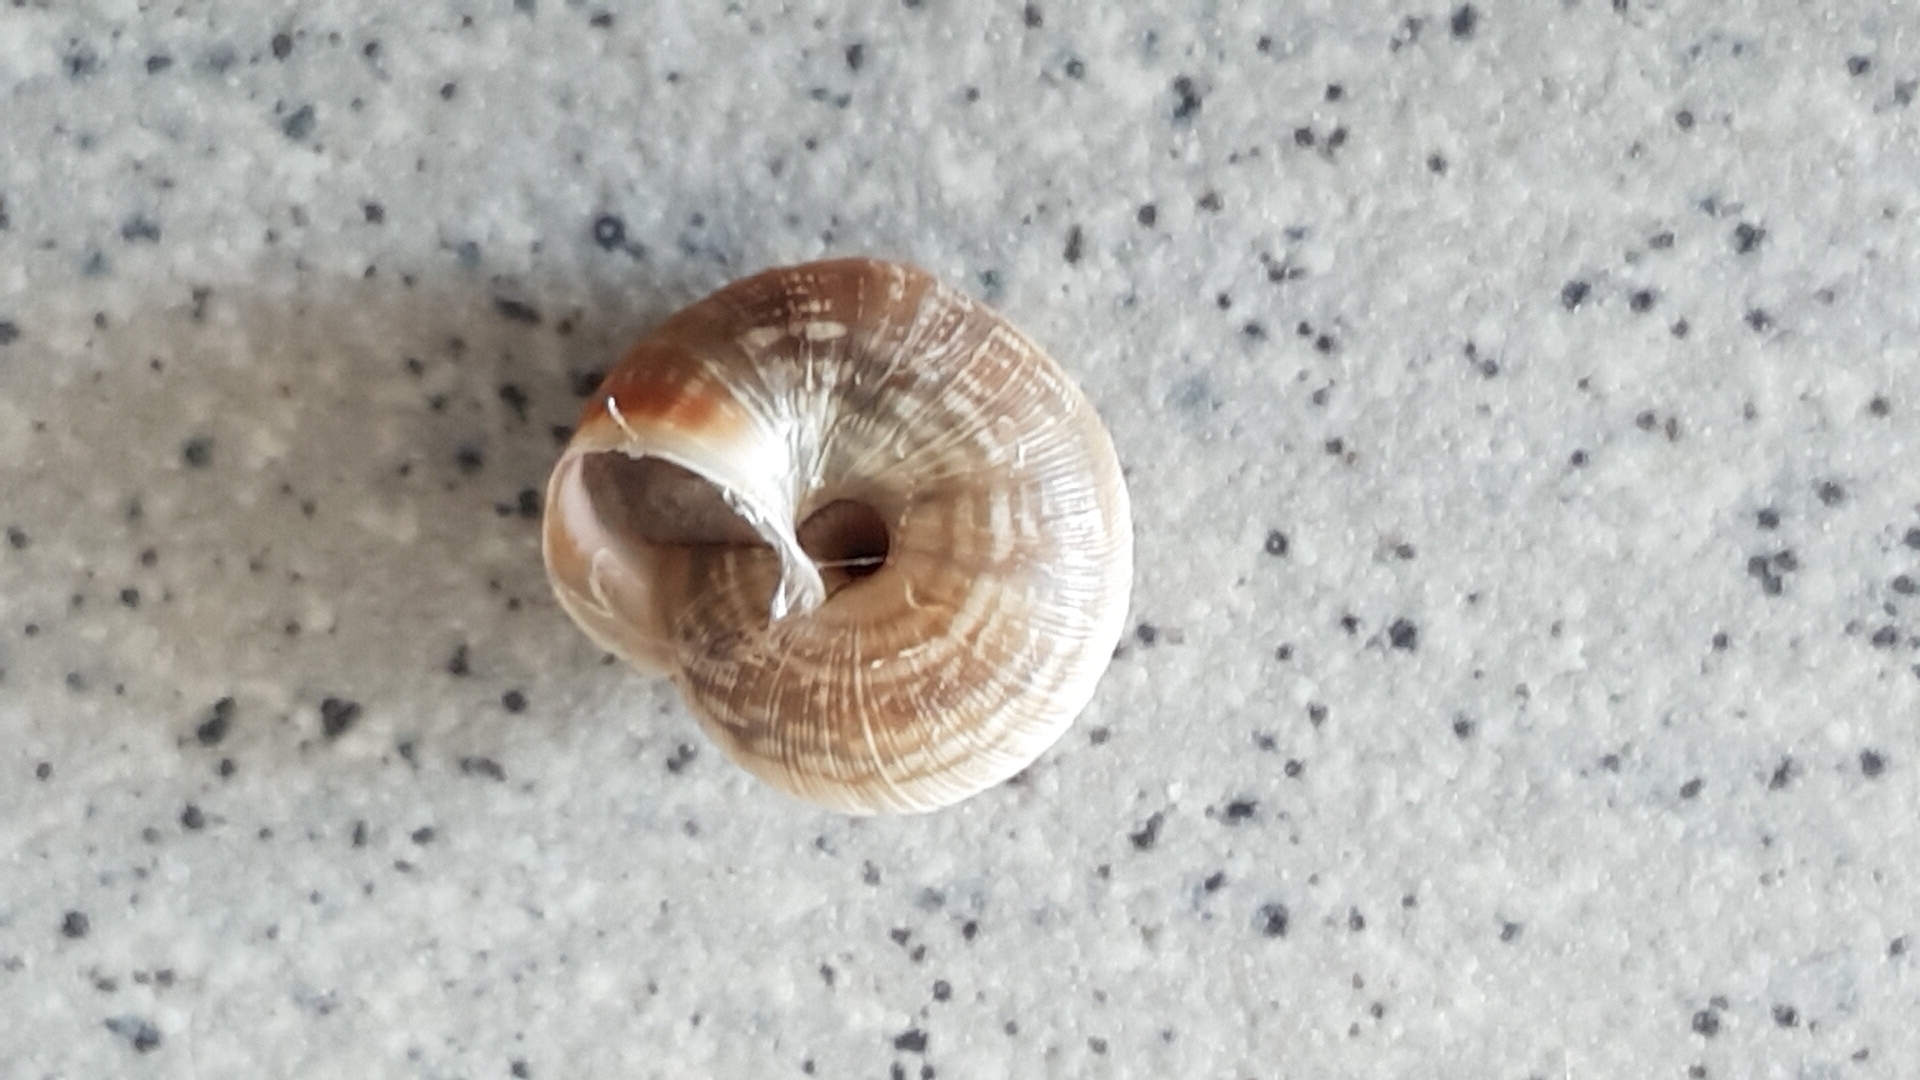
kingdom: Animalia
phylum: Mollusca
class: Gastropoda
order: Stylommatophora
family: Geomitridae
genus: Xeroplexa
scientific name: Xeroplexa intersecta
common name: Wrinkled snail
